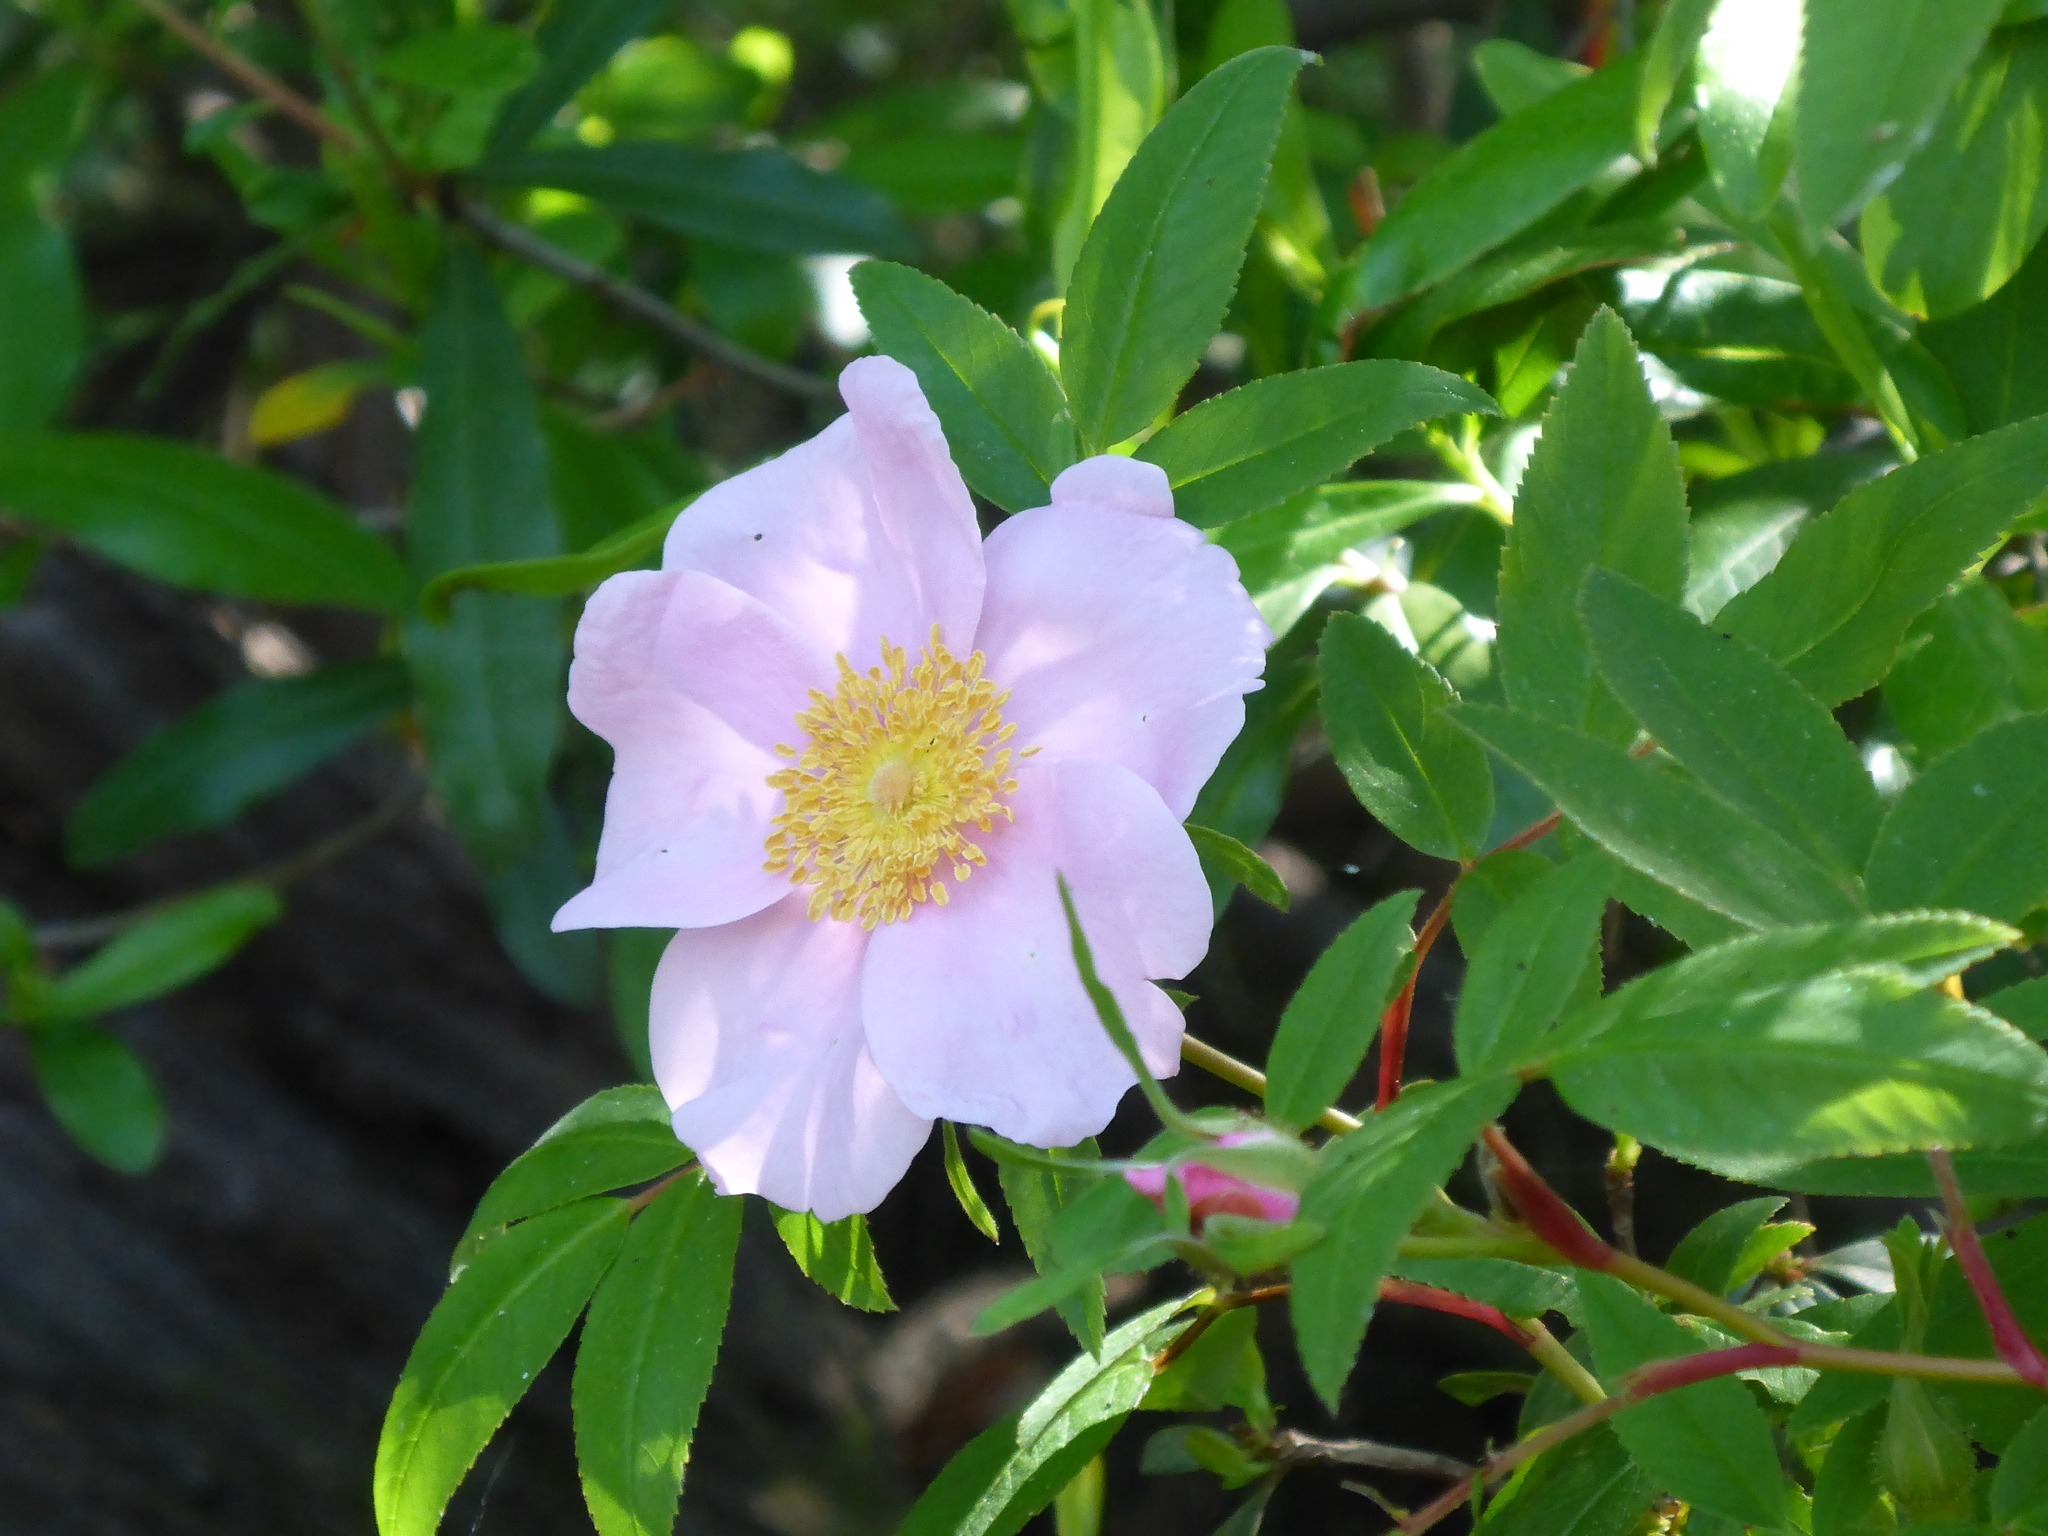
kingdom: Plantae
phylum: Tracheophyta
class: Magnoliopsida
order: Rosales
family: Rosaceae
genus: Rosa
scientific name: Rosa palustris
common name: Swamp rose
